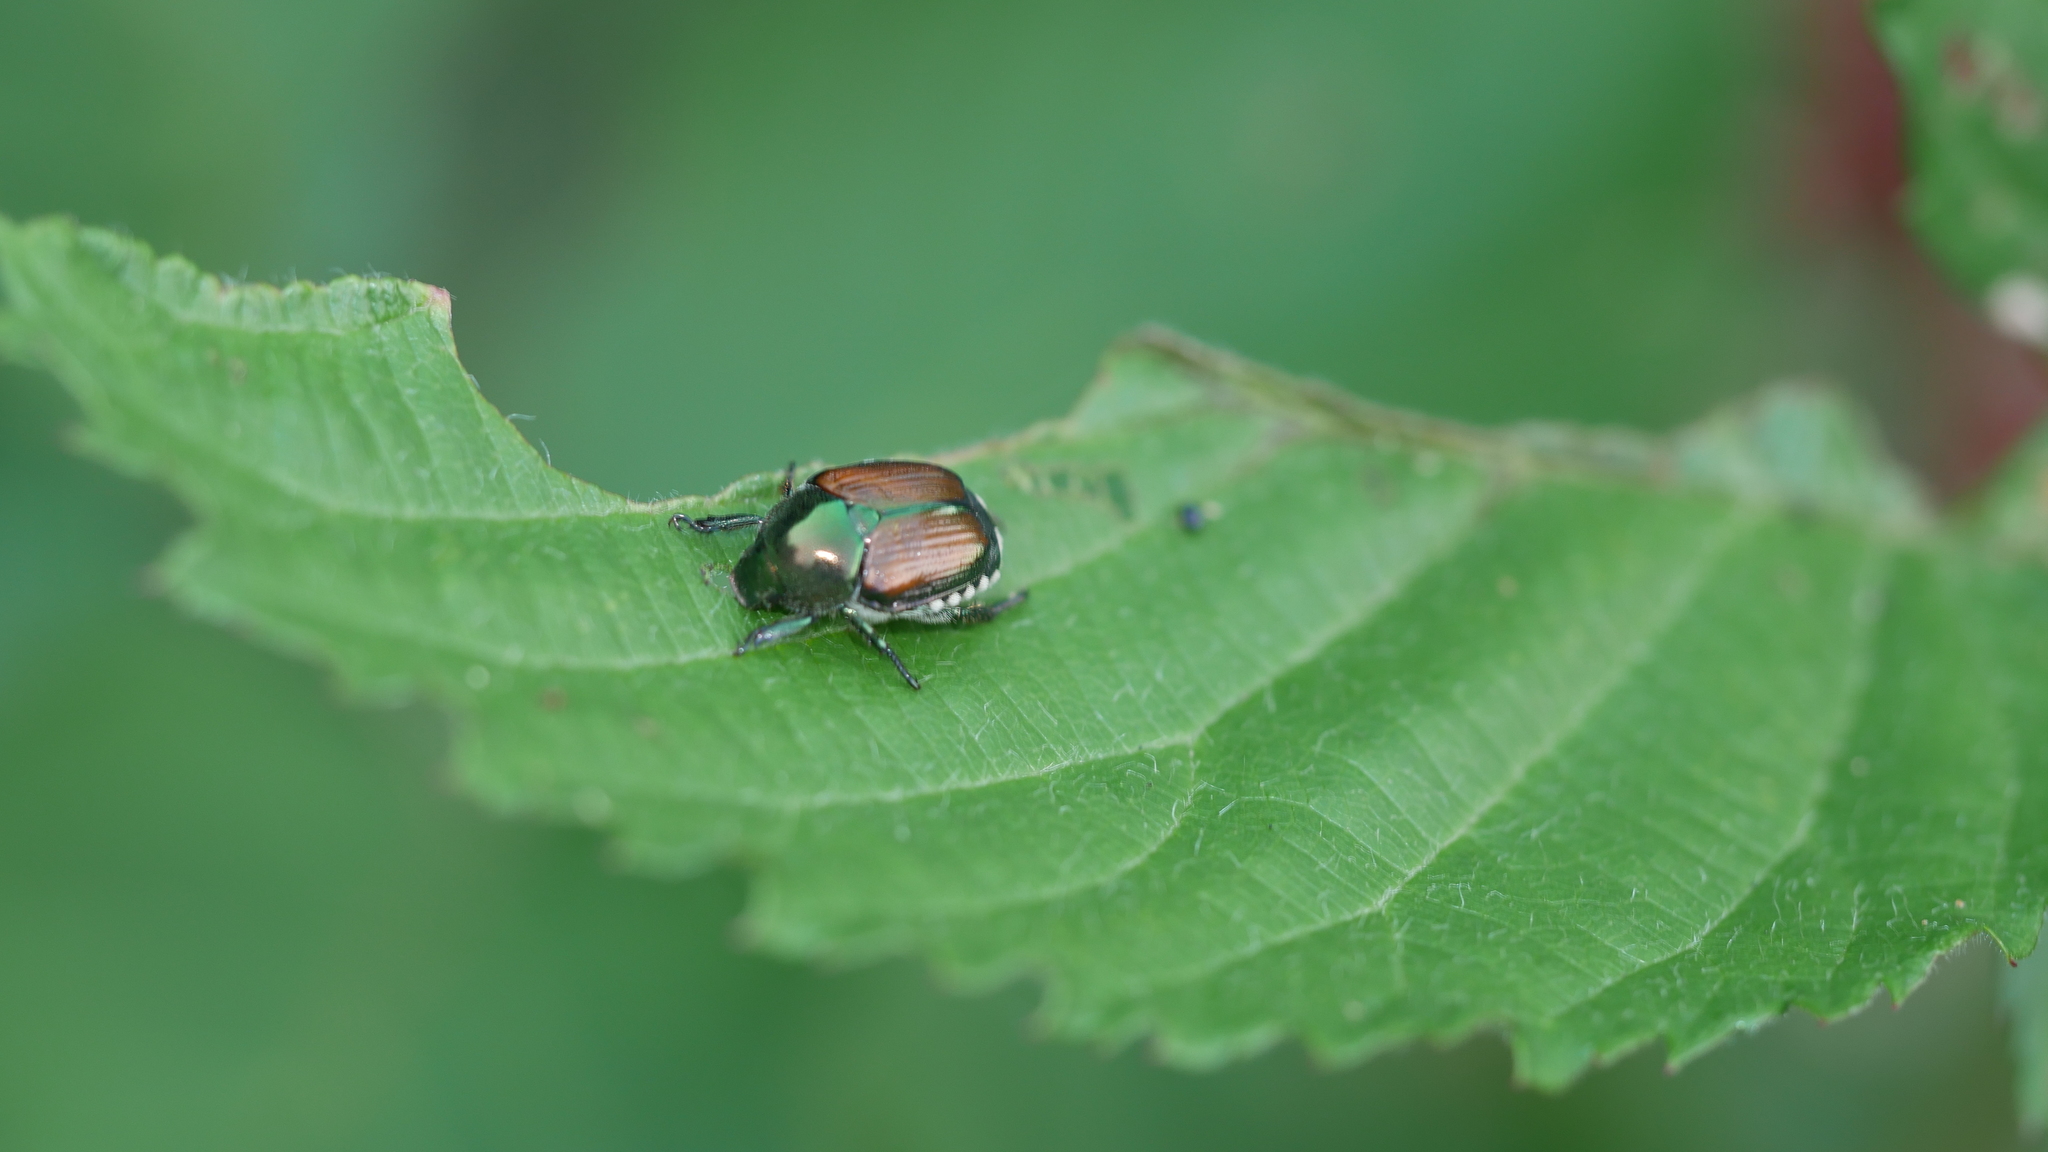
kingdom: Animalia
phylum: Arthropoda
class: Insecta
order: Coleoptera
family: Scarabaeidae
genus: Popillia
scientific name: Popillia japonica
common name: Japanese beetle
